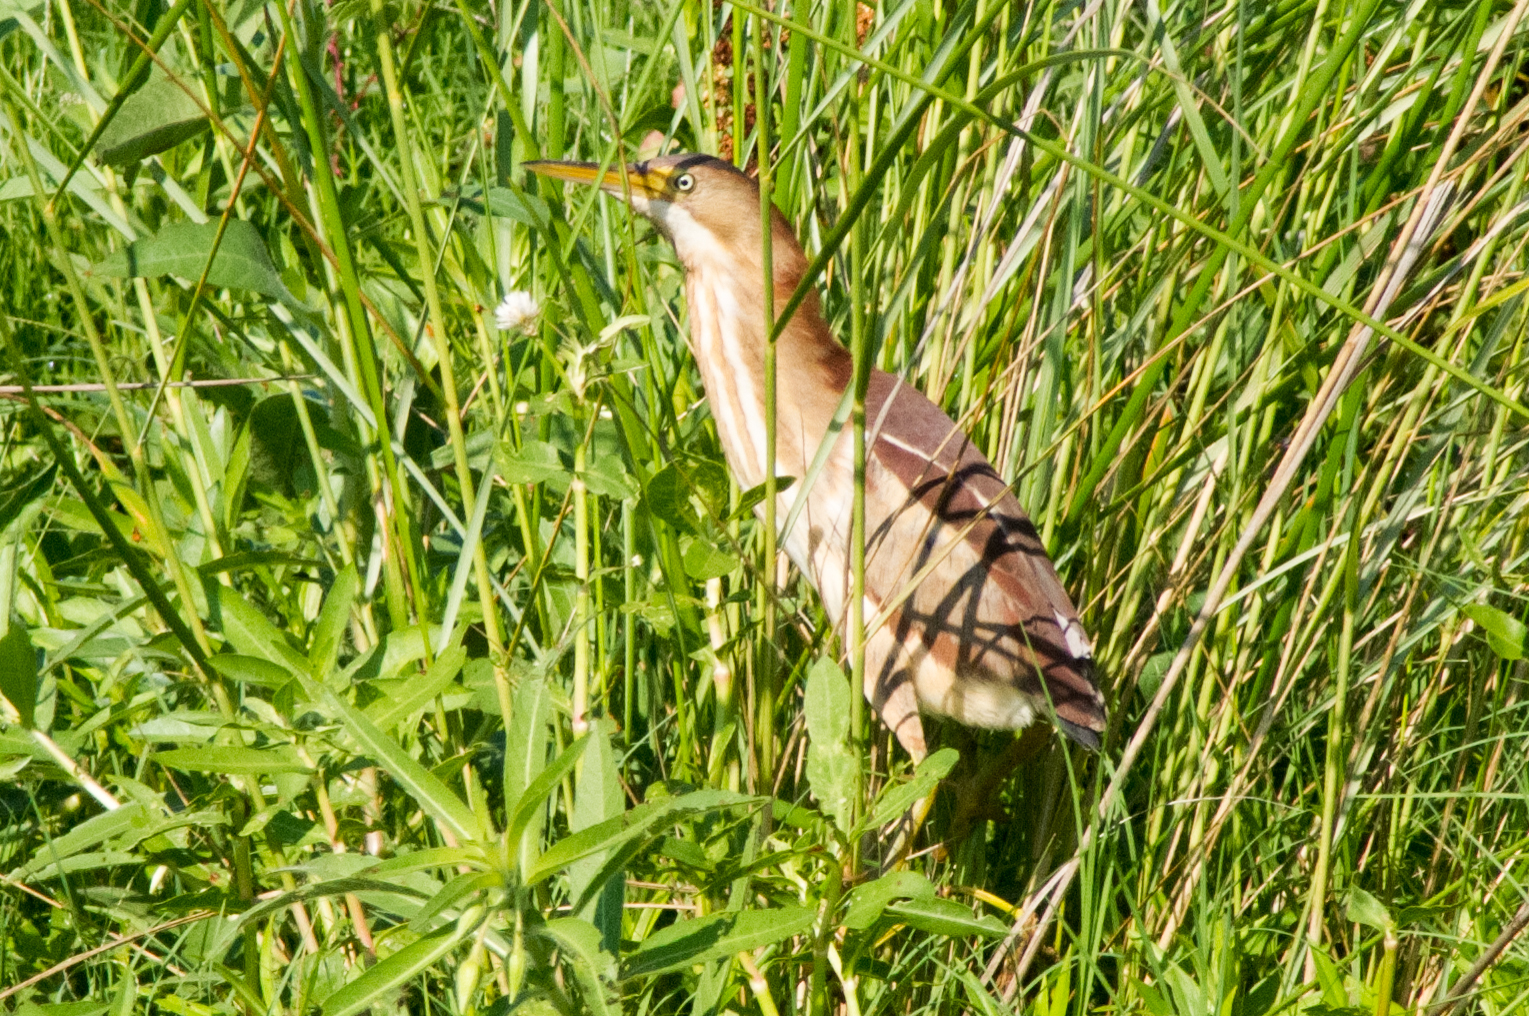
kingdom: Animalia
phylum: Chordata
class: Aves
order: Pelecaniformes
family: Ardeidae
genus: Ixobrychus
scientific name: Ixobrychus exilis
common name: Least bittern
